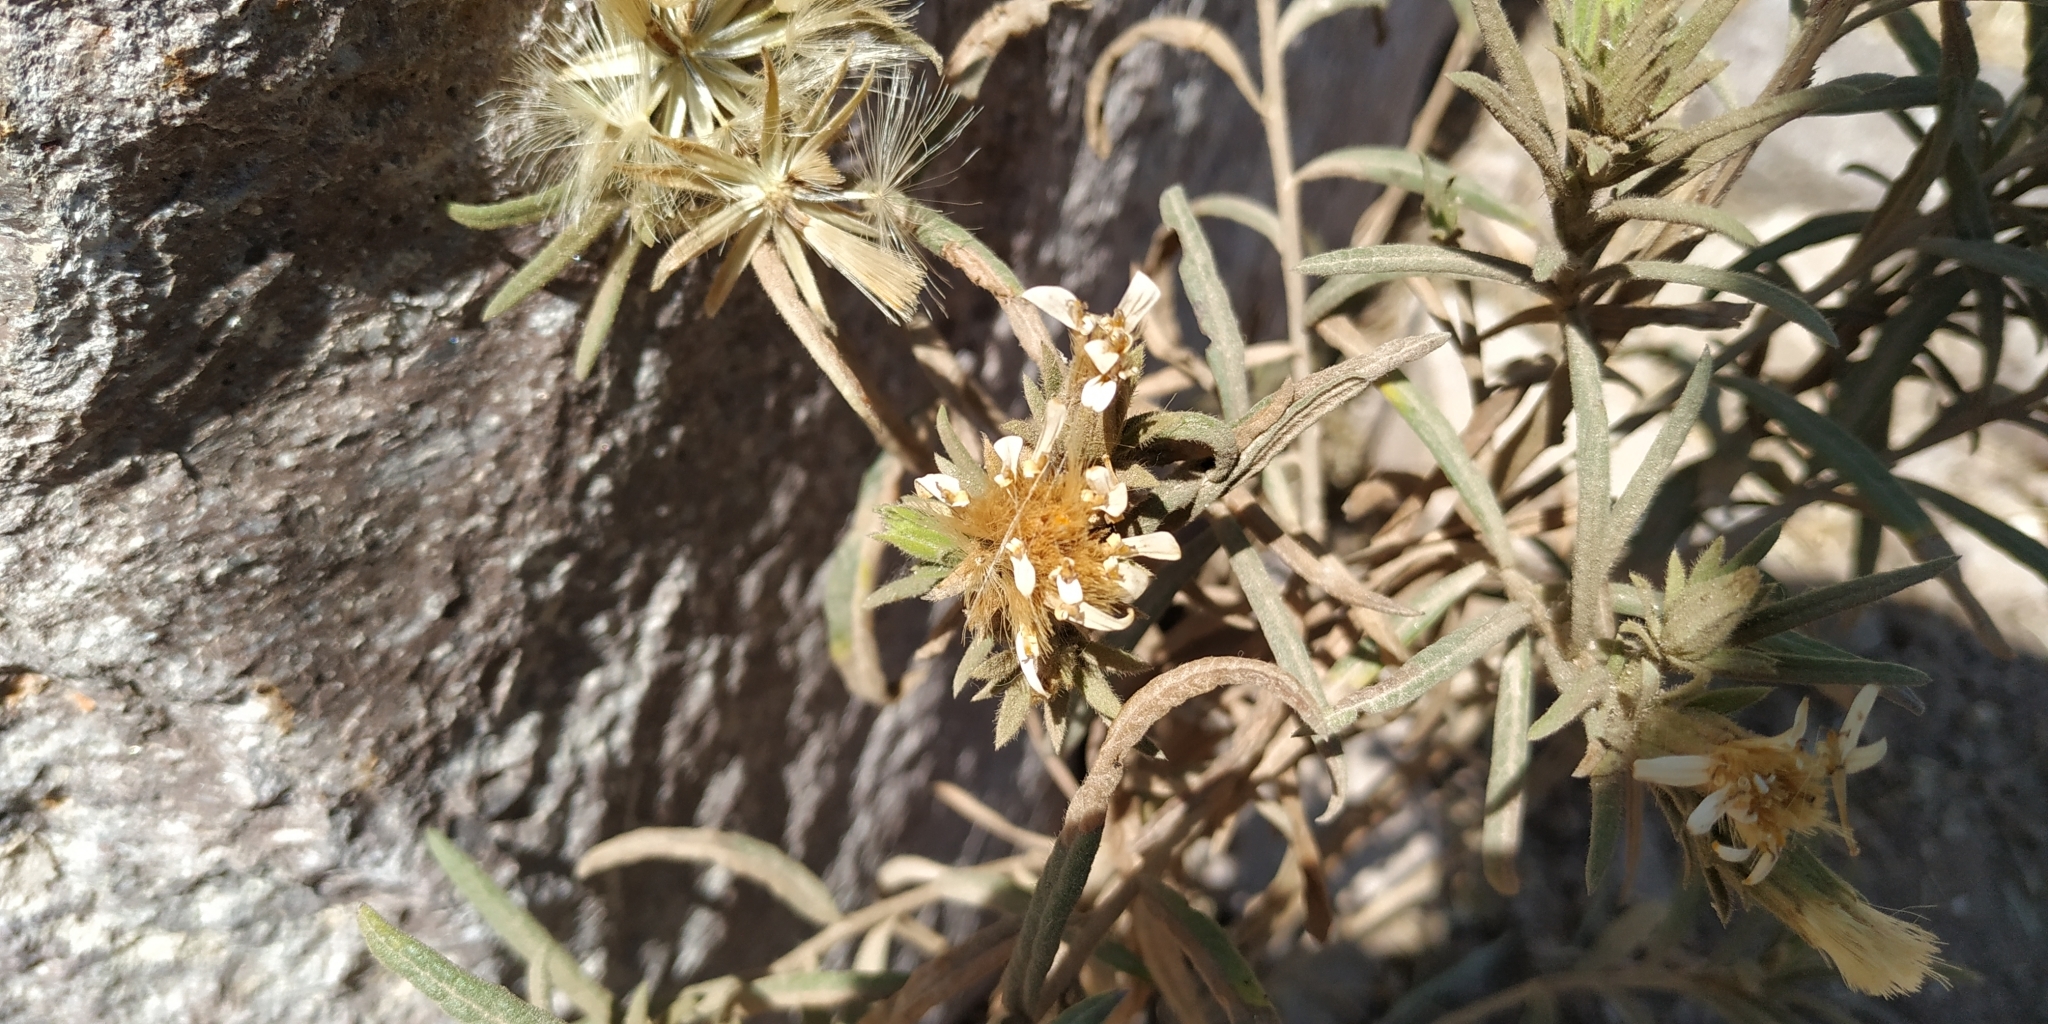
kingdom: Plantae
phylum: Tracheophyta
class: Magnoliopsida
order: Asterales
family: Asteraceae
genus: Trixis
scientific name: Trixis angustifolia
